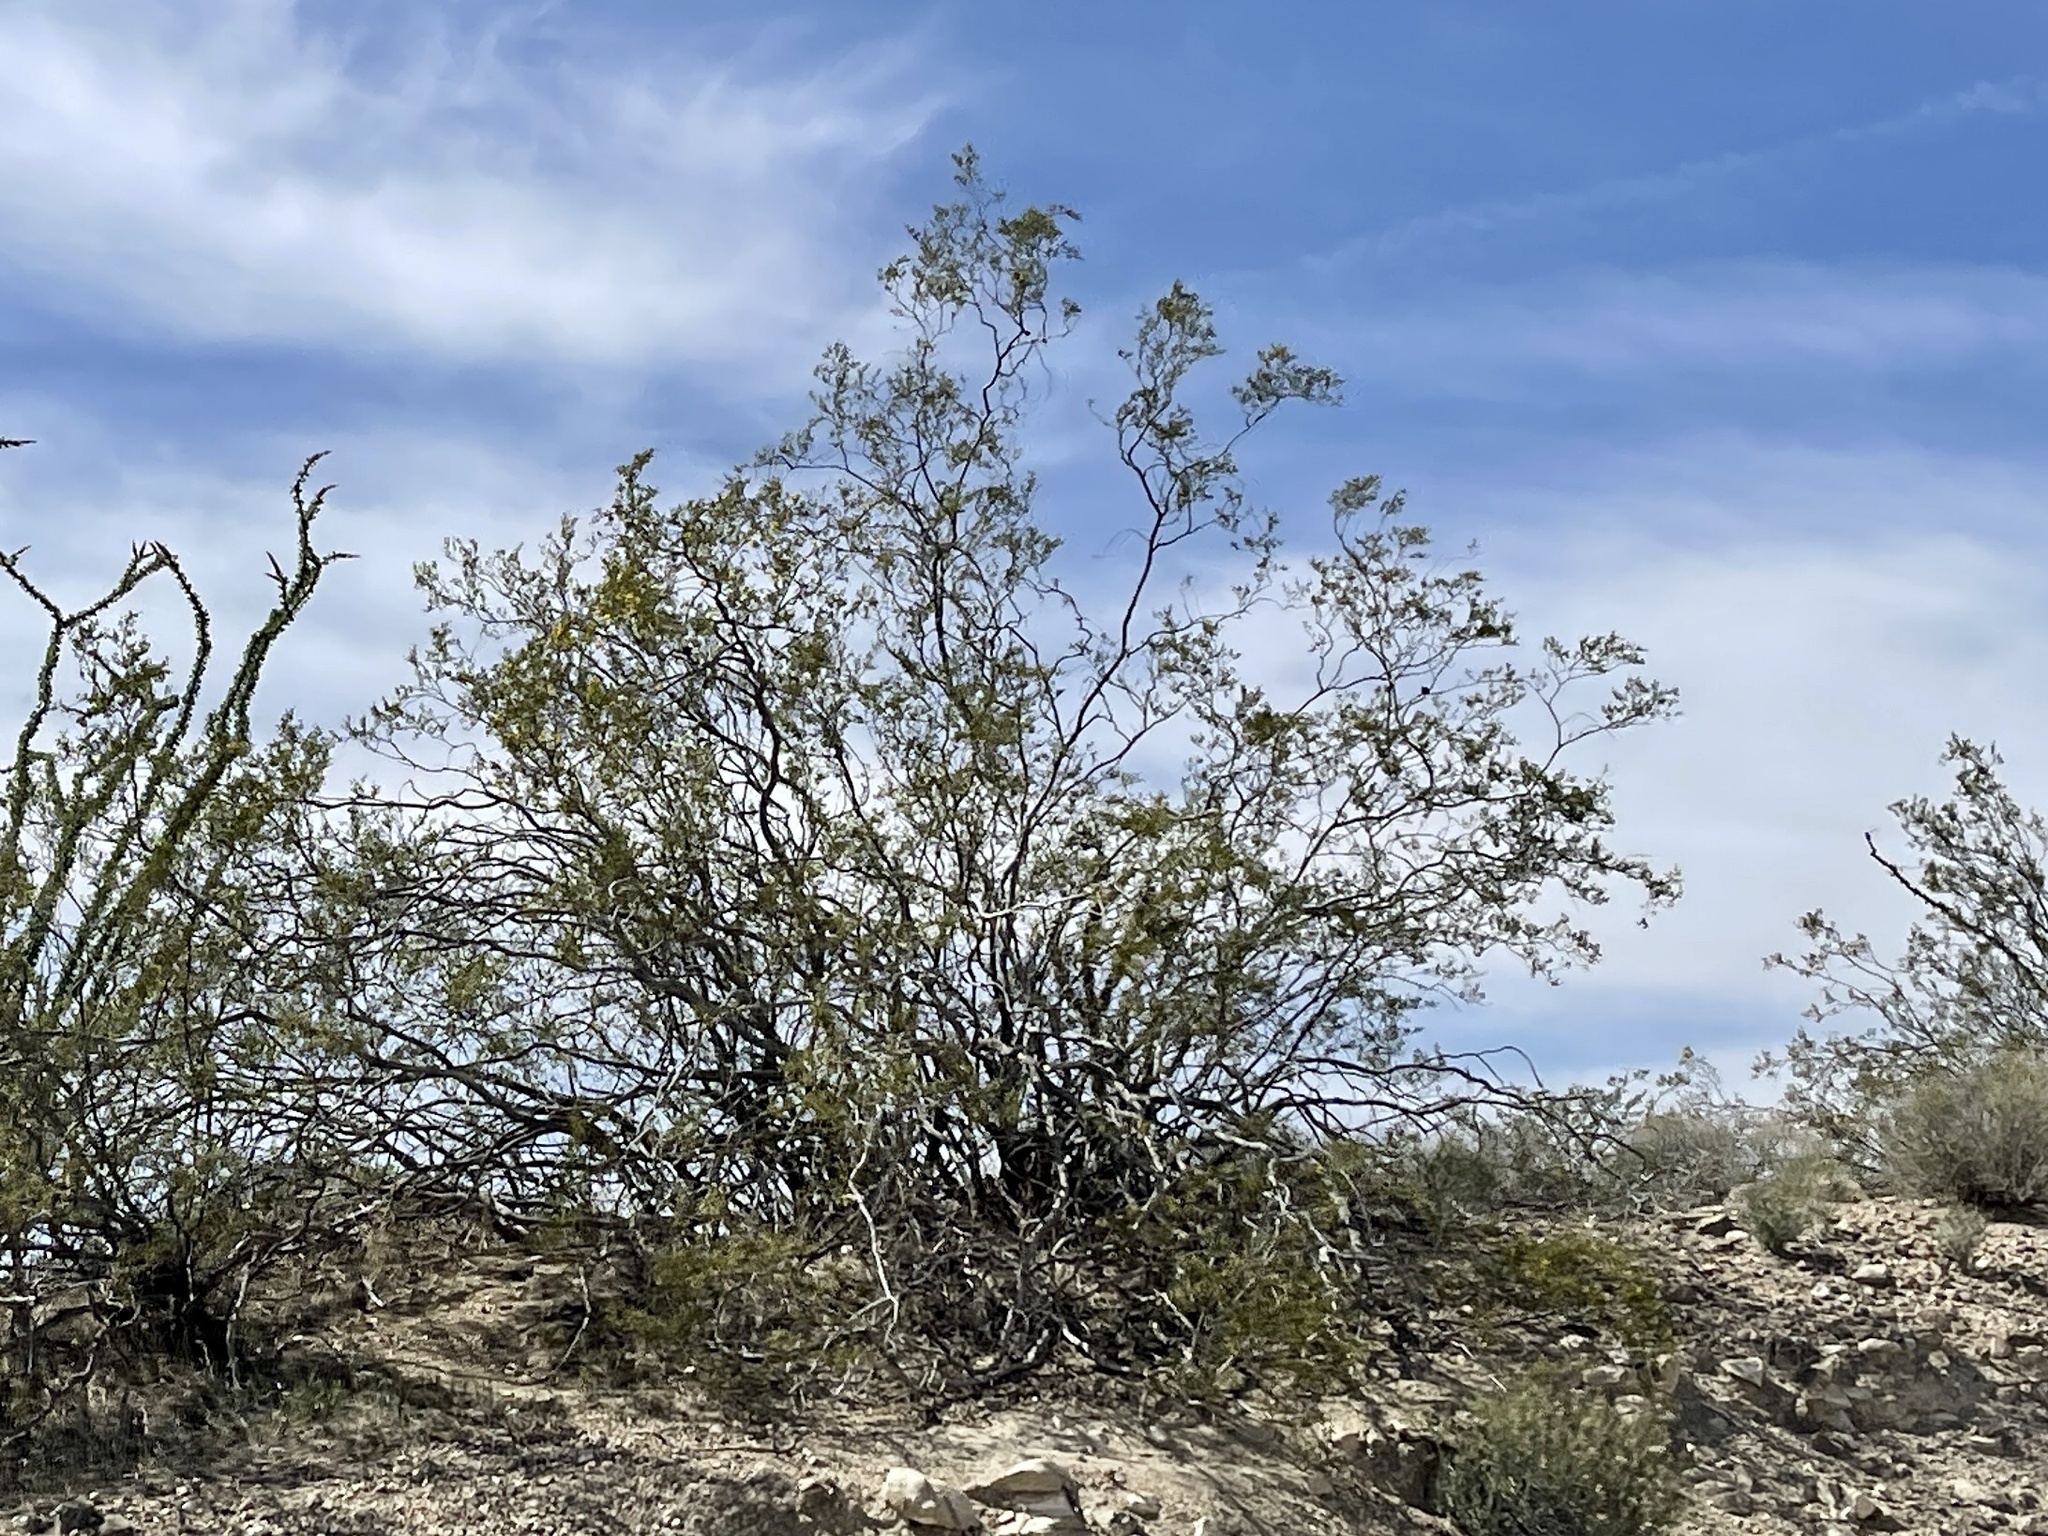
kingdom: Plantae
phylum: Tracheophyta
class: Magnoliopsida
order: Zygophyllales
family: Zygophyllaceae
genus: Larrea
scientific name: Larrea tridentata
